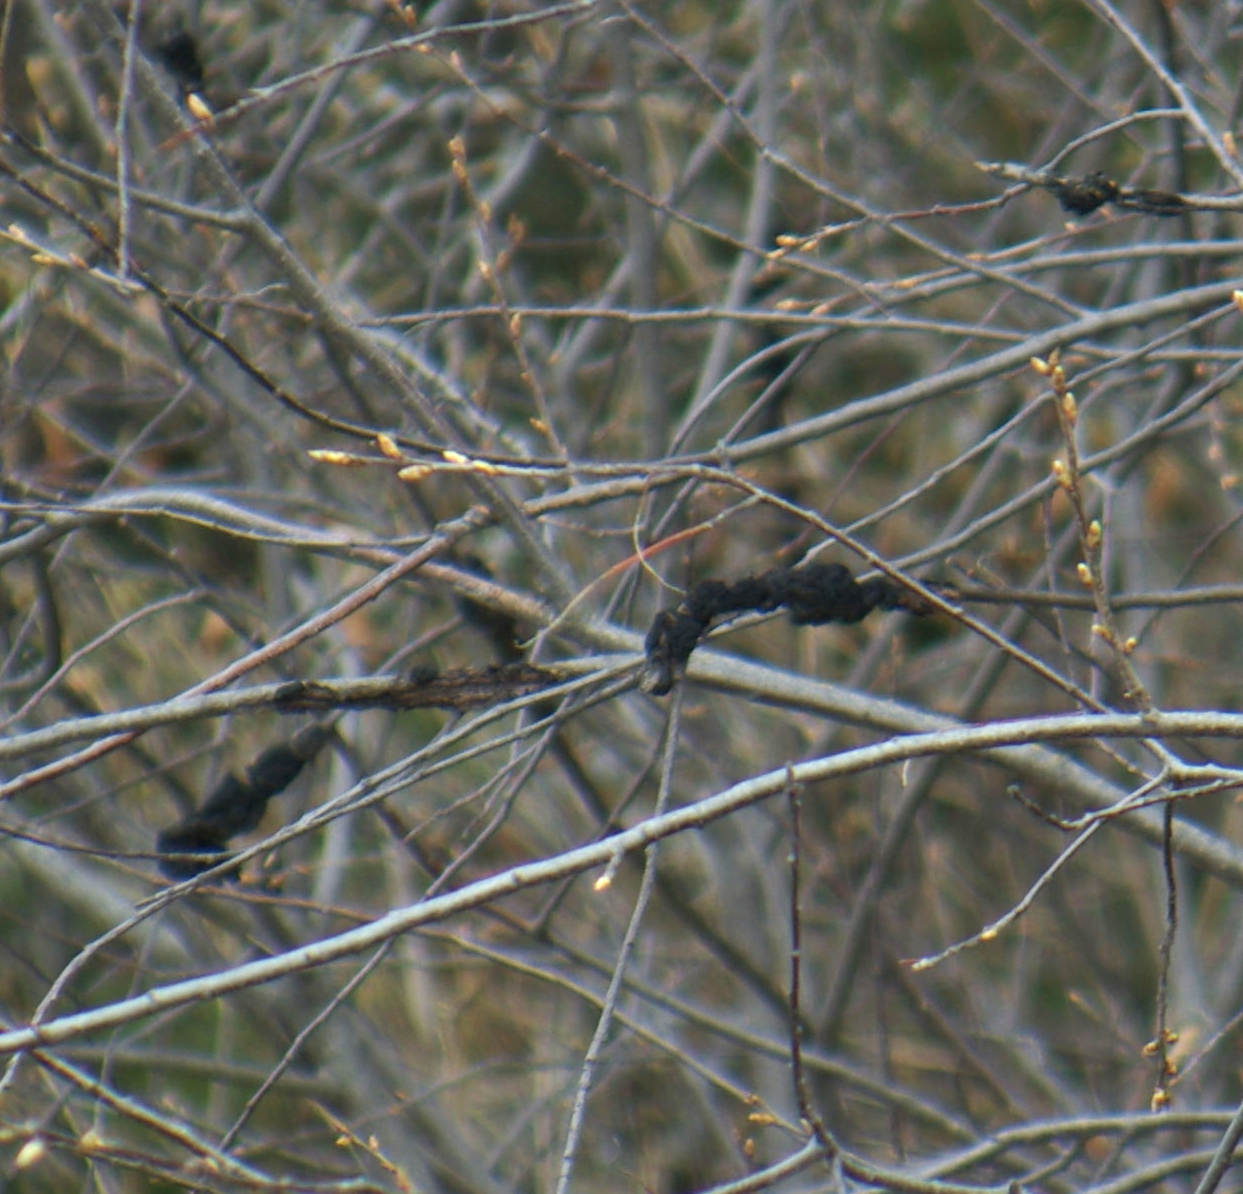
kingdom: Fungi
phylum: Ascomycota
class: Dothideomycetes
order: Venturiales
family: Venturiaceae
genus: Apiosporina
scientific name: Apiosporina morbosa
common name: Black knot
